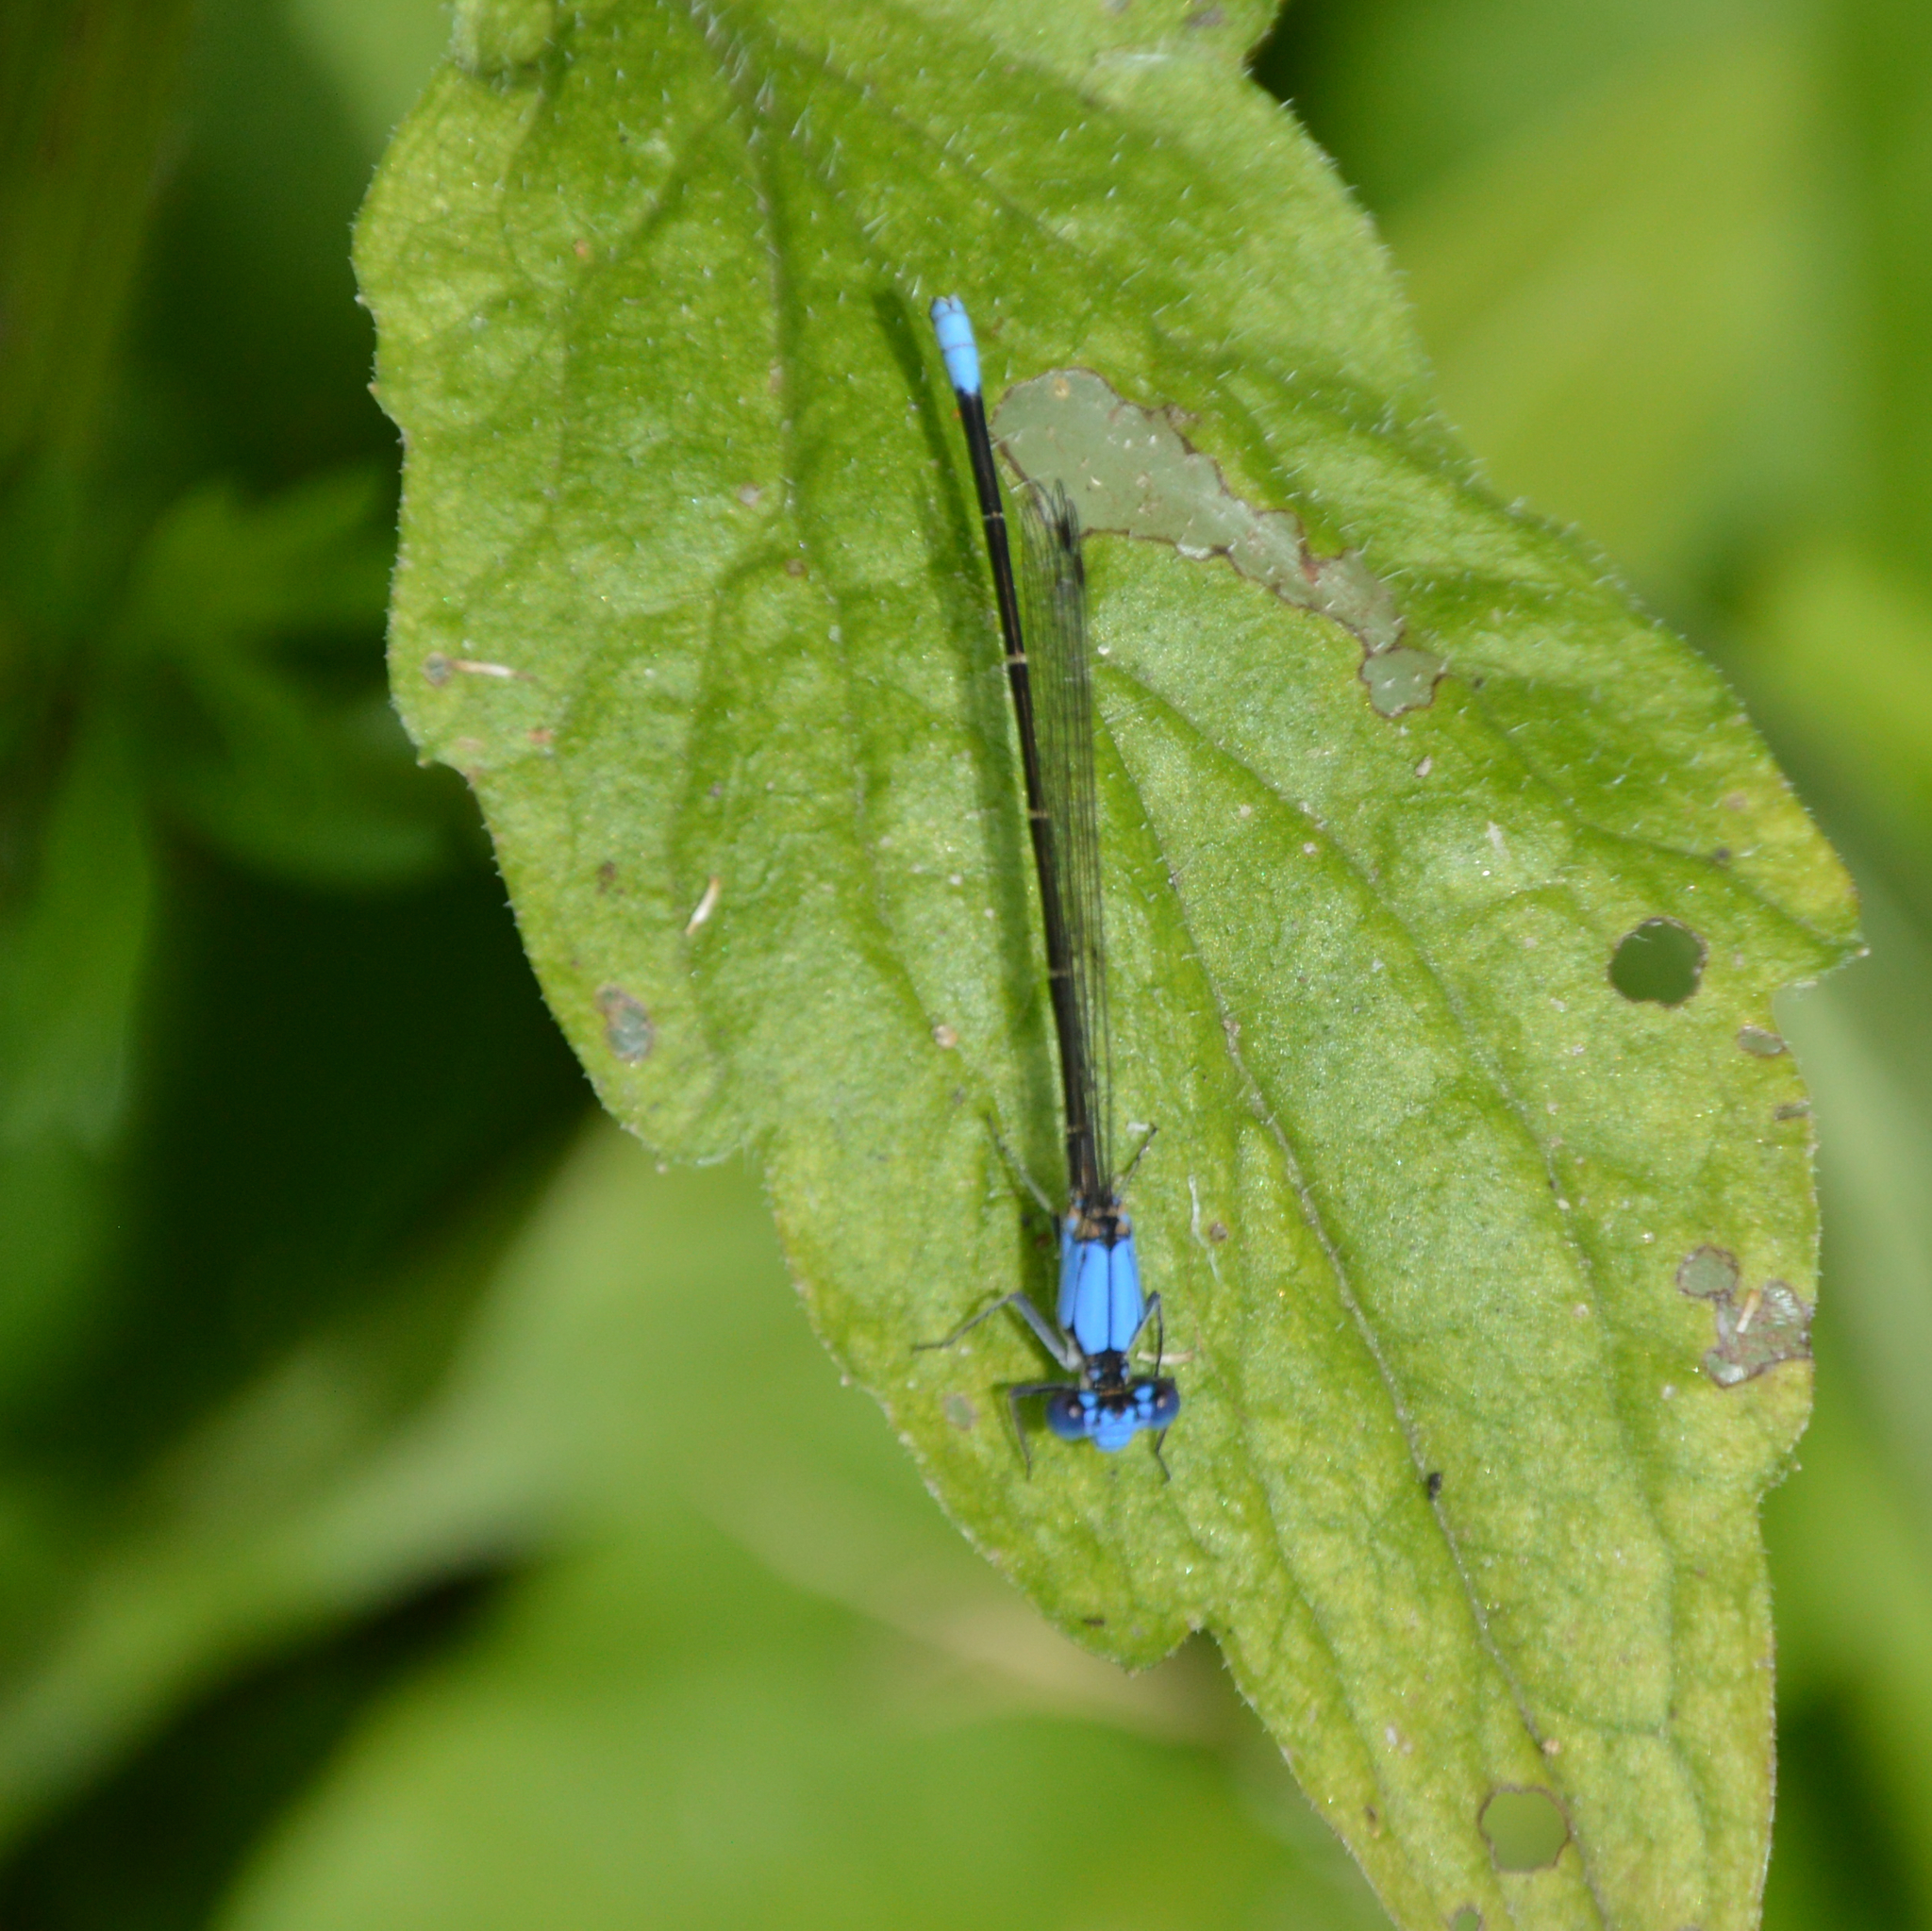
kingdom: Animalia
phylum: Arthropoda
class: Insecta
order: Odonata
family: Coenagrionidae
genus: Argia
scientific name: Argia apicalis
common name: Blue-fronted dancer
